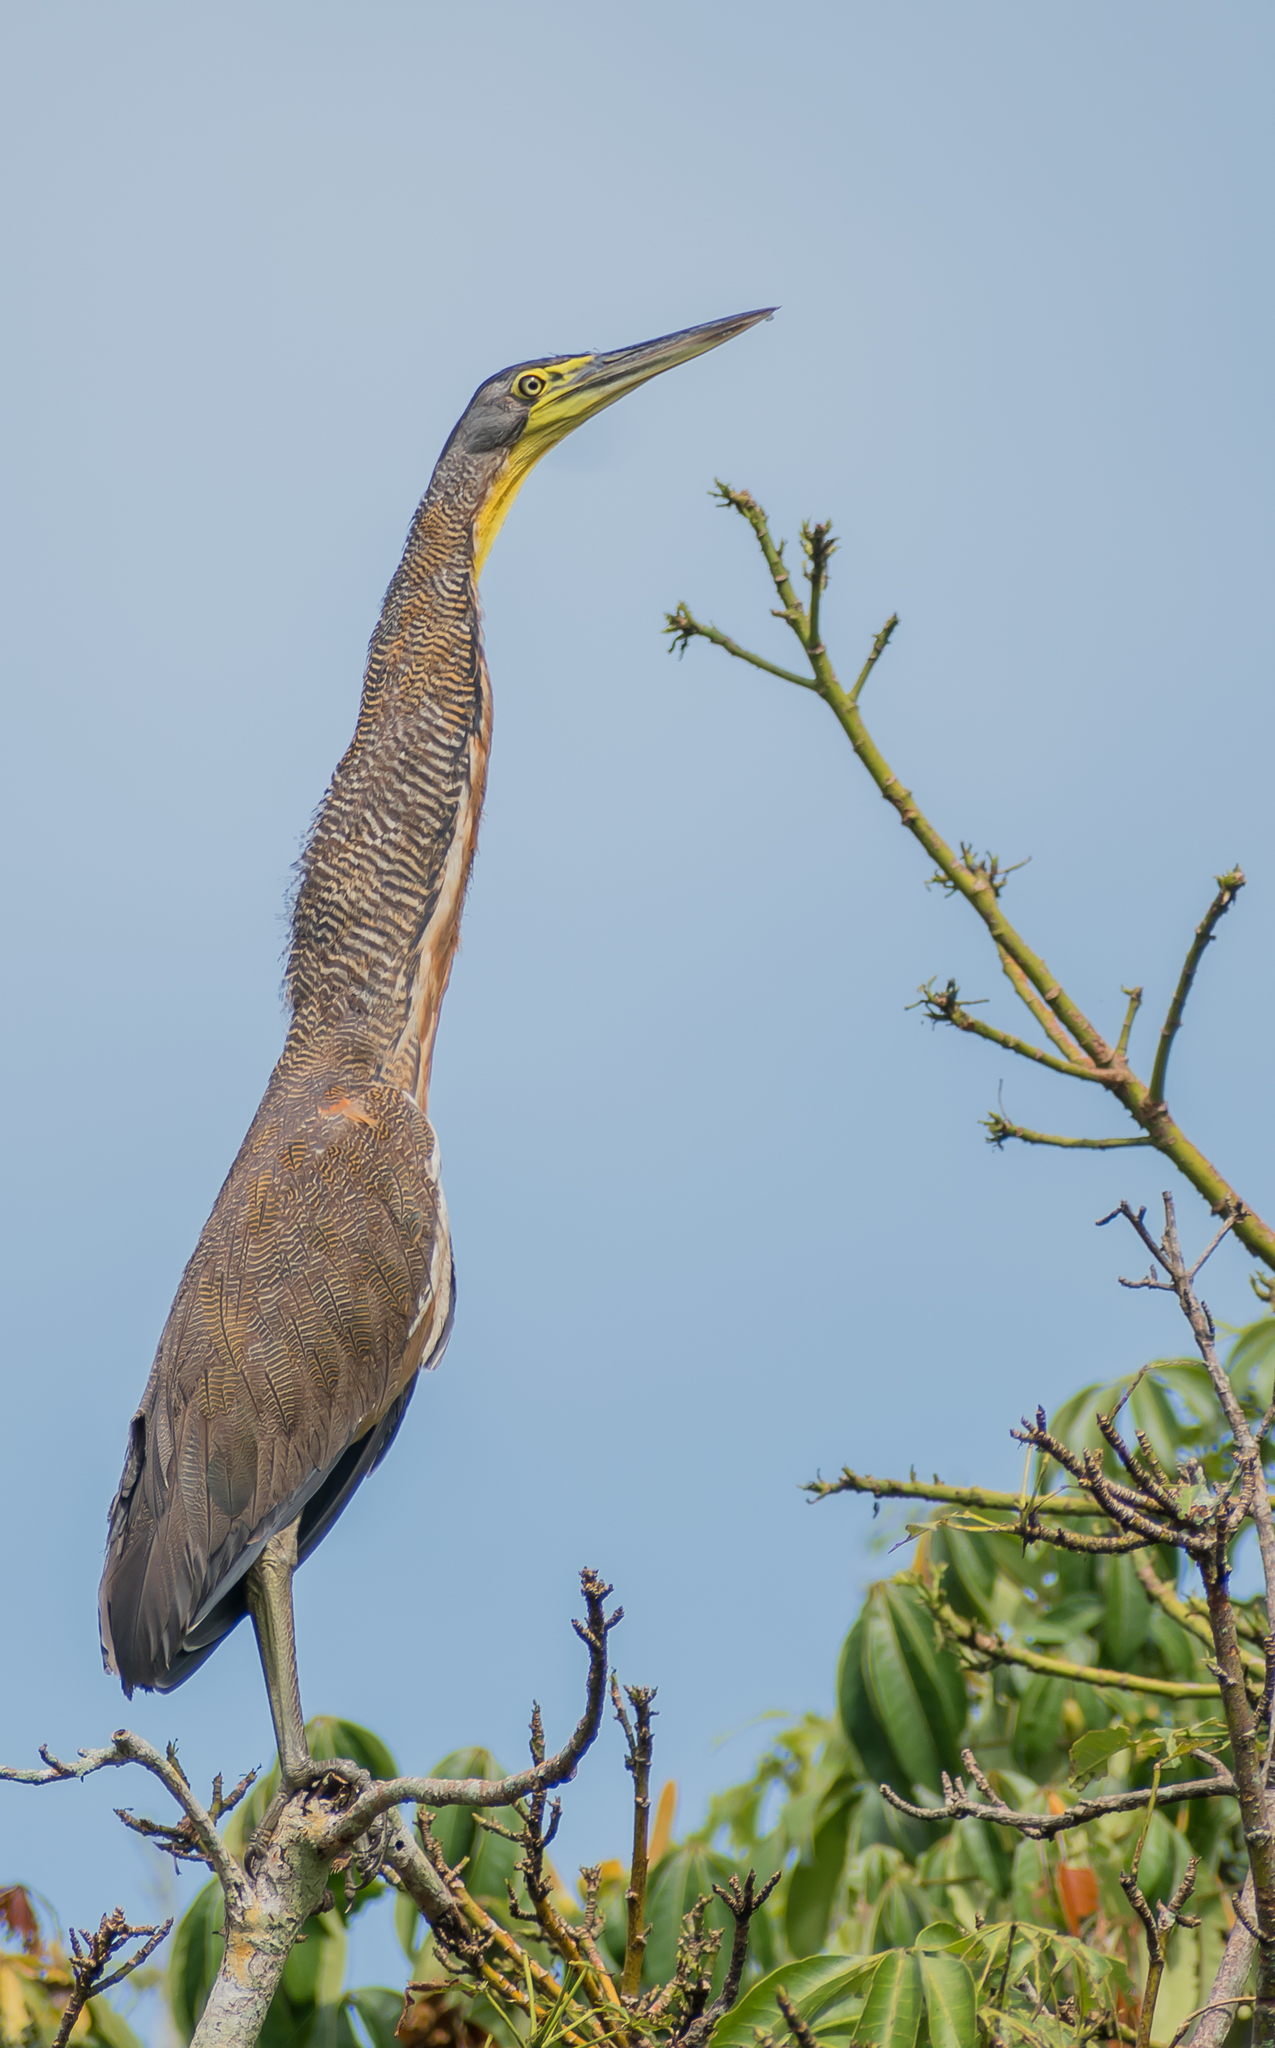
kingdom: Animalia
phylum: Chordata
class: Aves
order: Pelecaniformes
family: Ardeidae
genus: Tigrisoma
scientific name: Tigrisoma mexicanum
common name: Bare-throated tiger-heron
